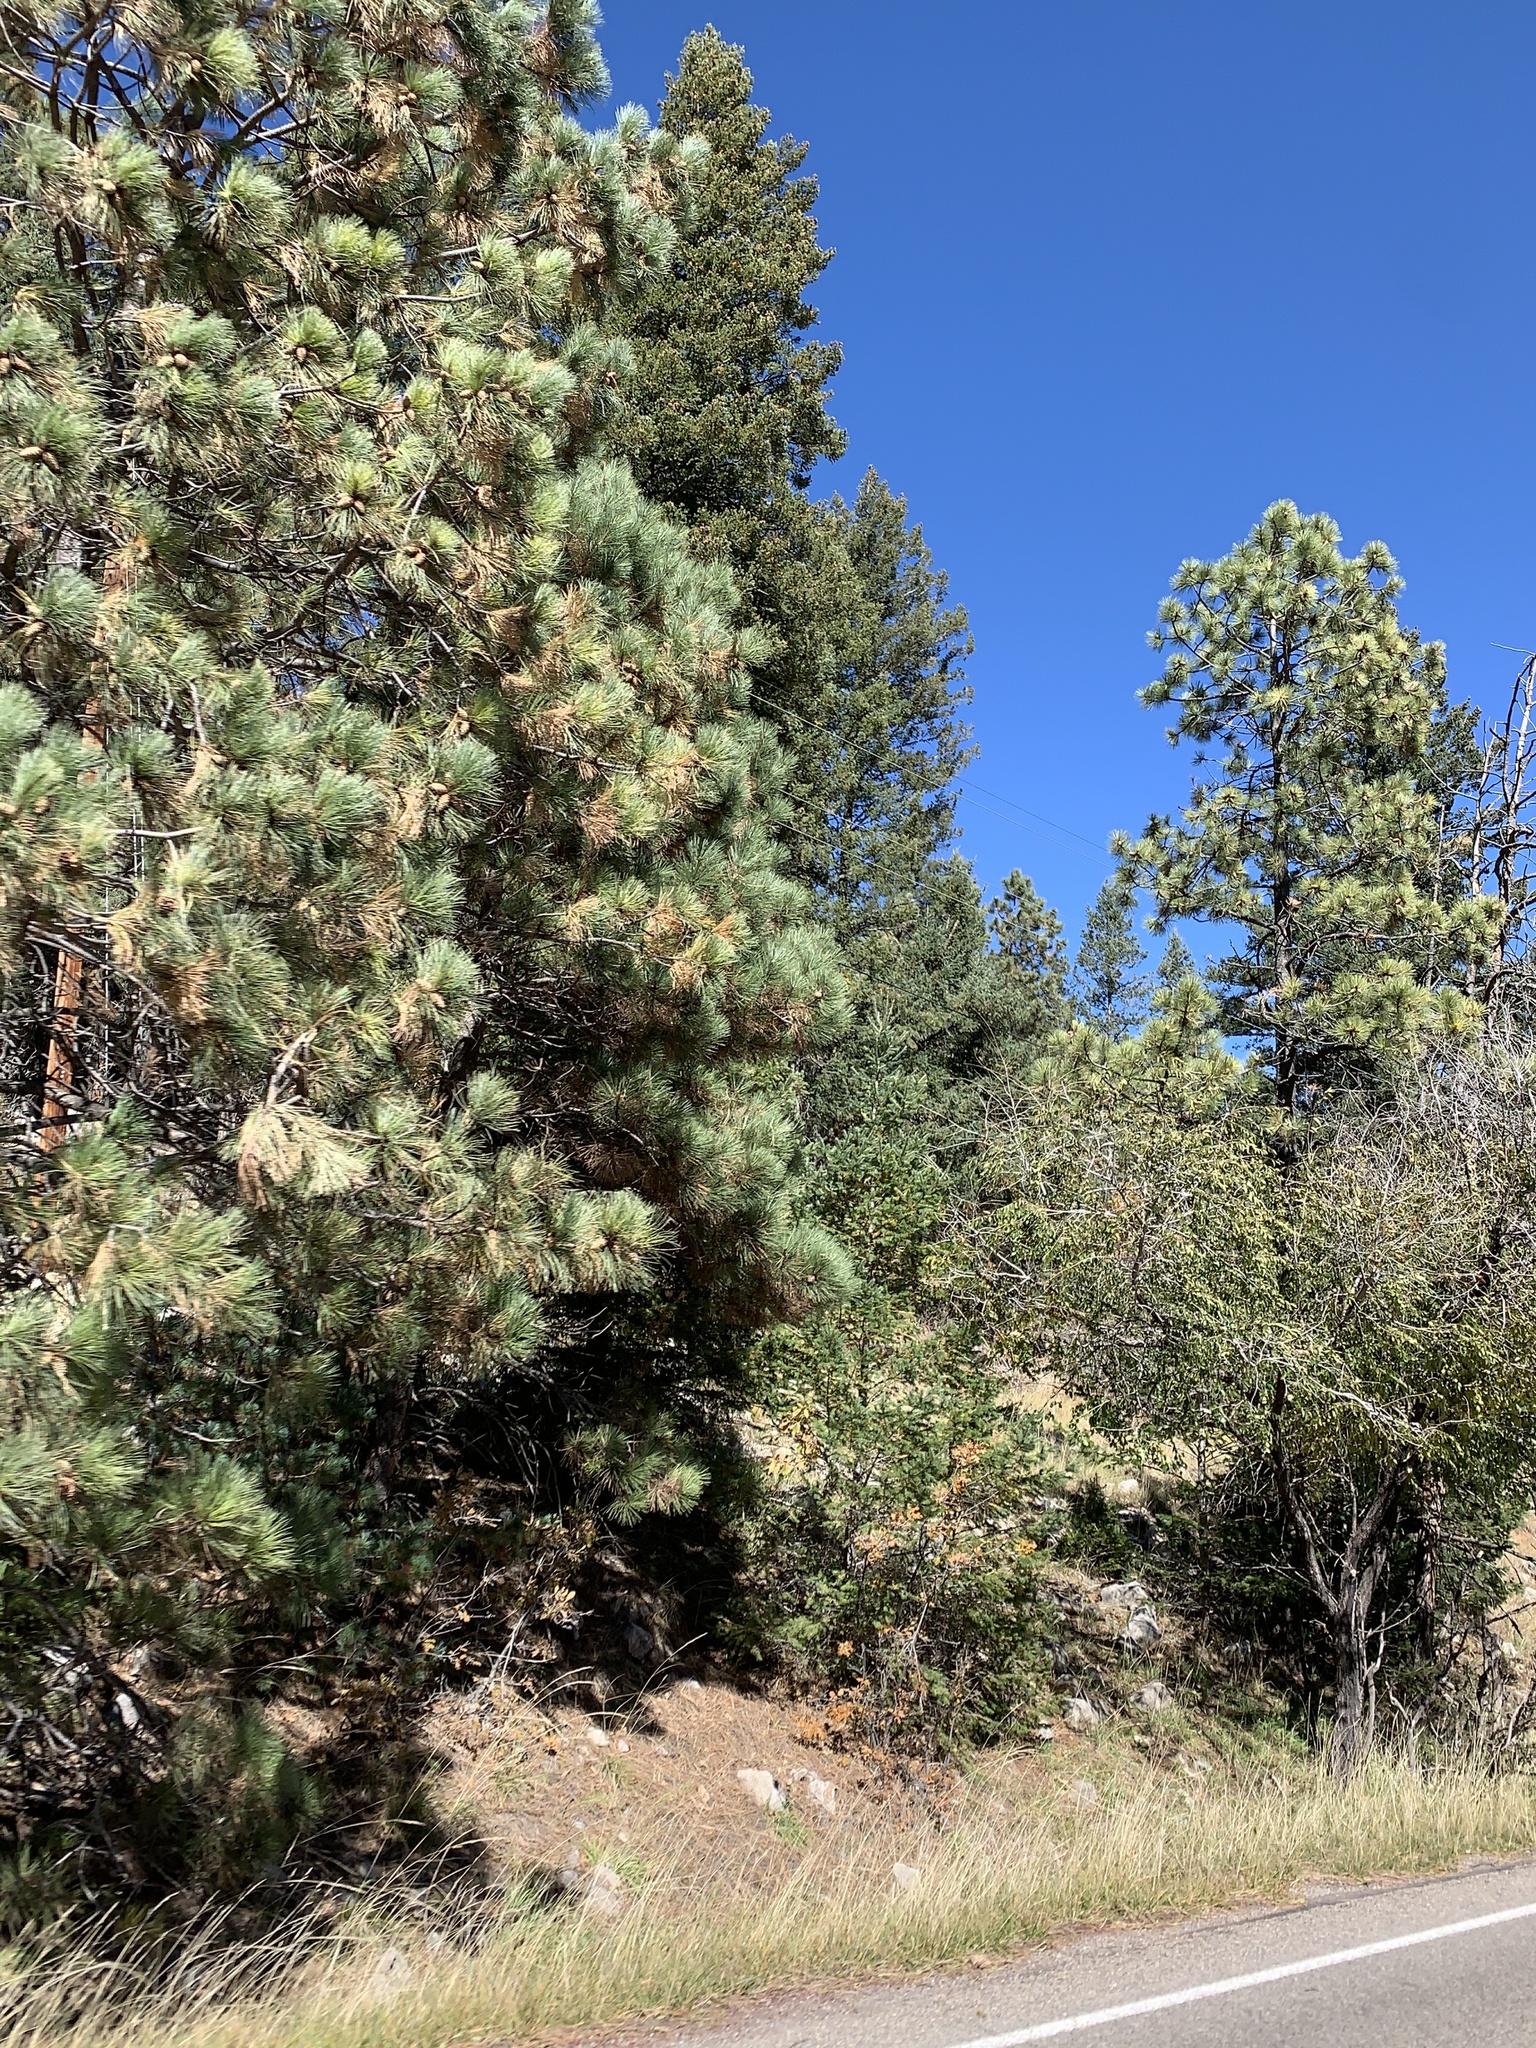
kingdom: Plantae
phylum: Tracheophyta
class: Pinopsida
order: Pinales
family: Pinaceae
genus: Pinus
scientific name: Pinus ponderosa
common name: Western yellow-pine
